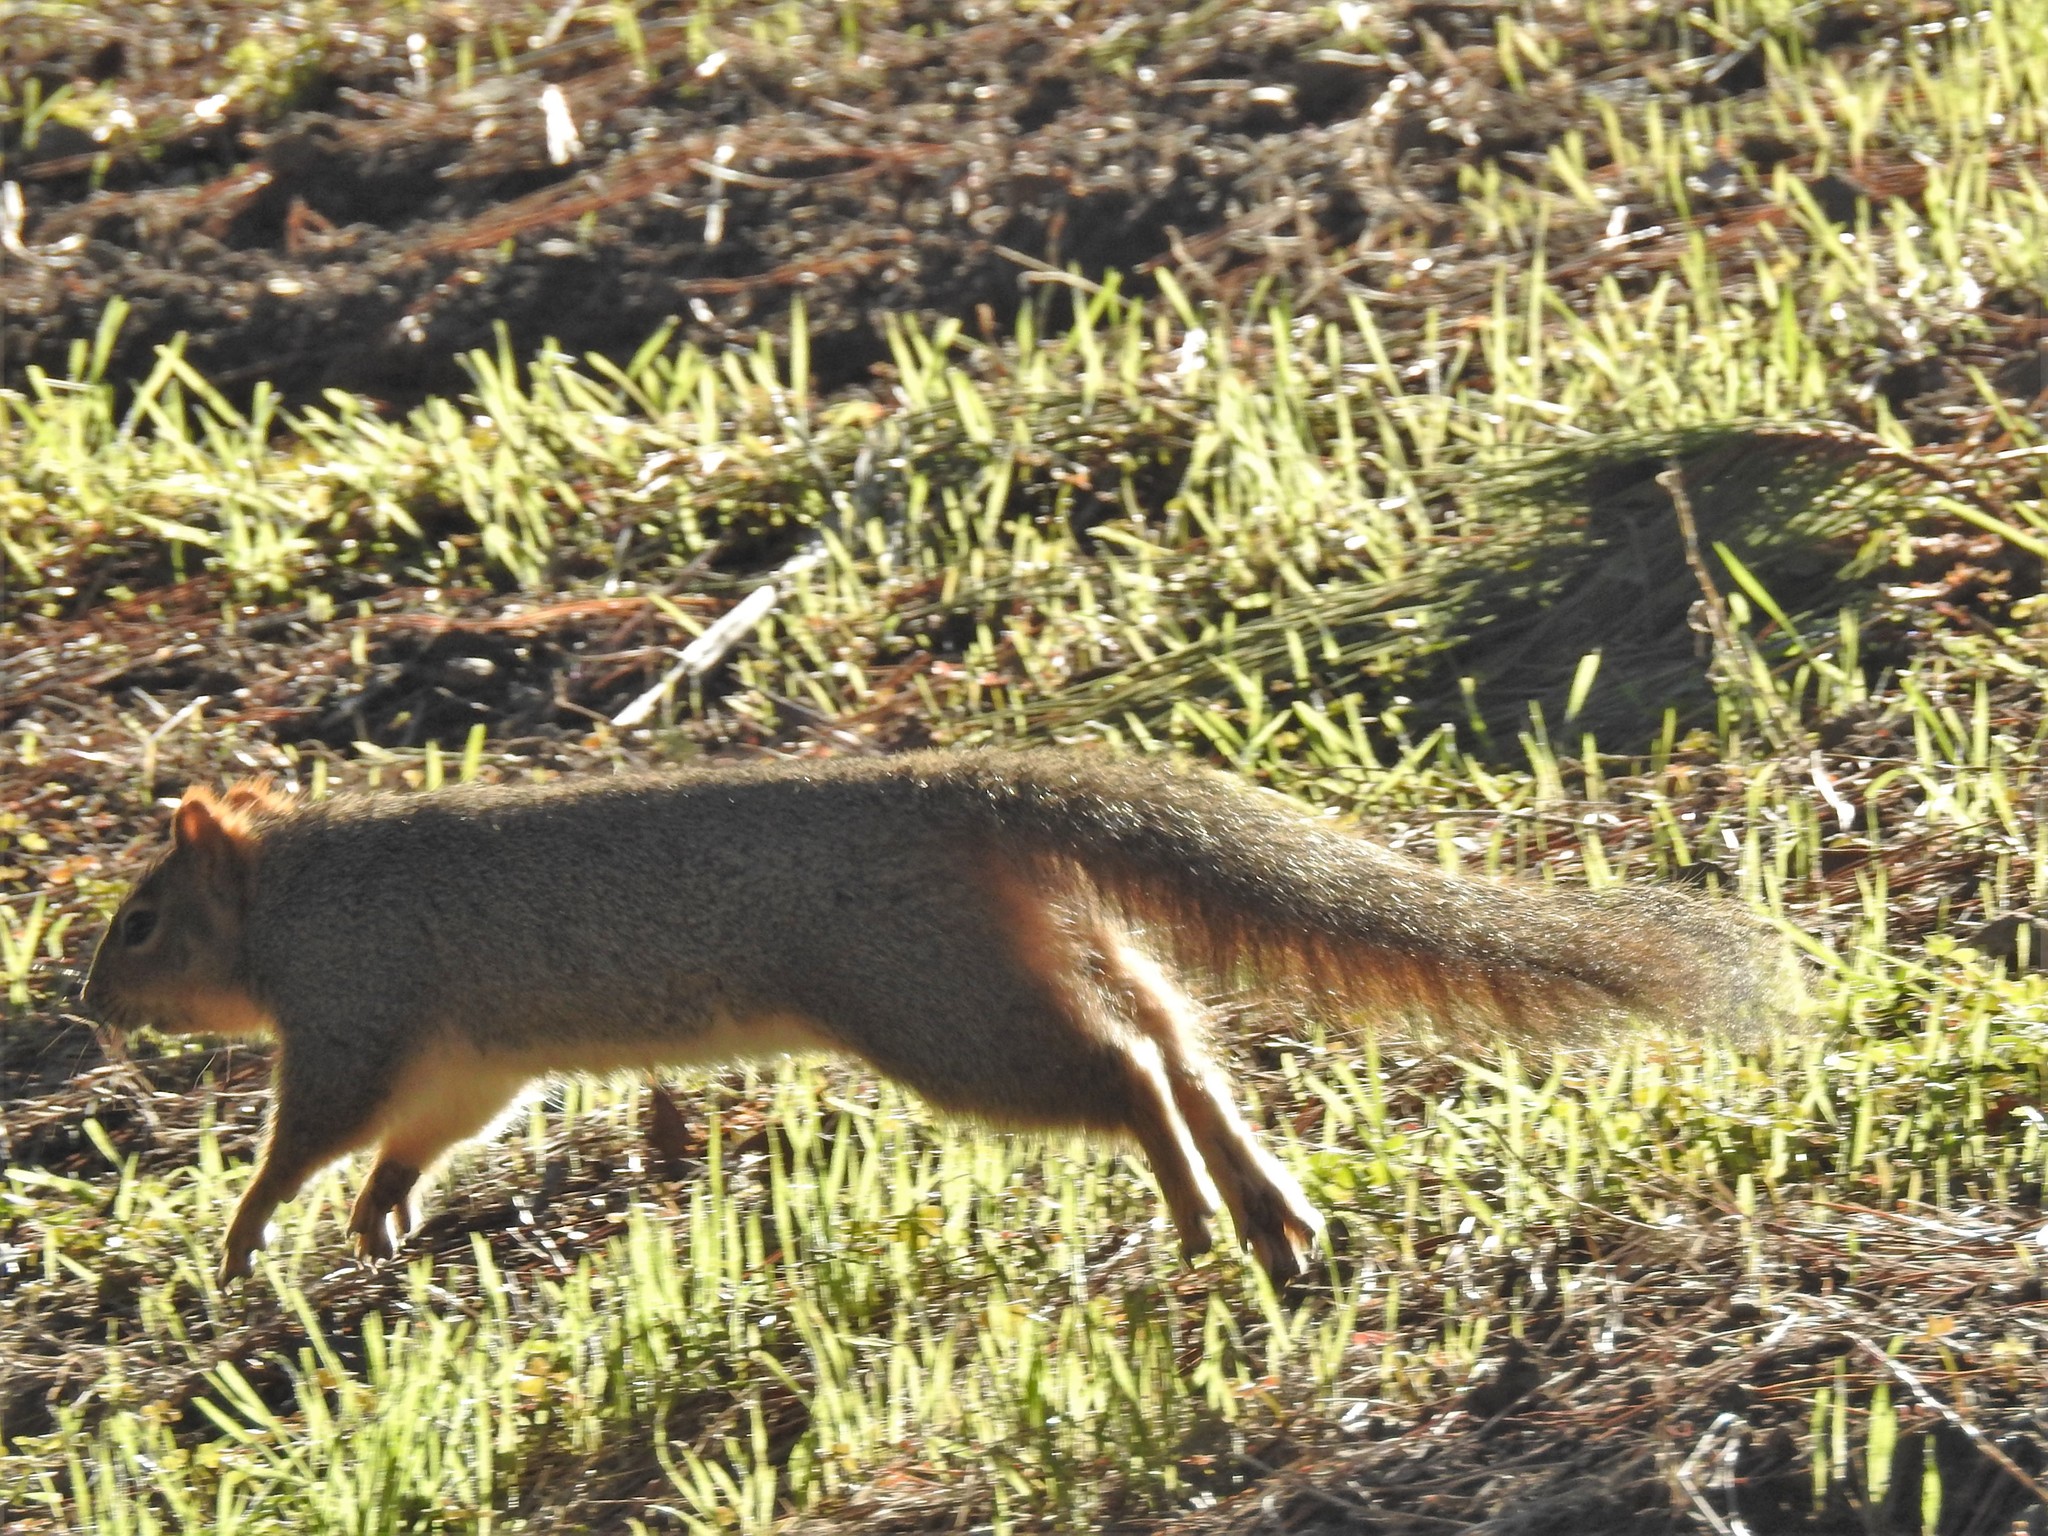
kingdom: Animalia
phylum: Chordata
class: Mammalia
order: Rodentia
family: Sciuridae
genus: Sciurus
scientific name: Sciurus niger
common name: Fox squirrel
